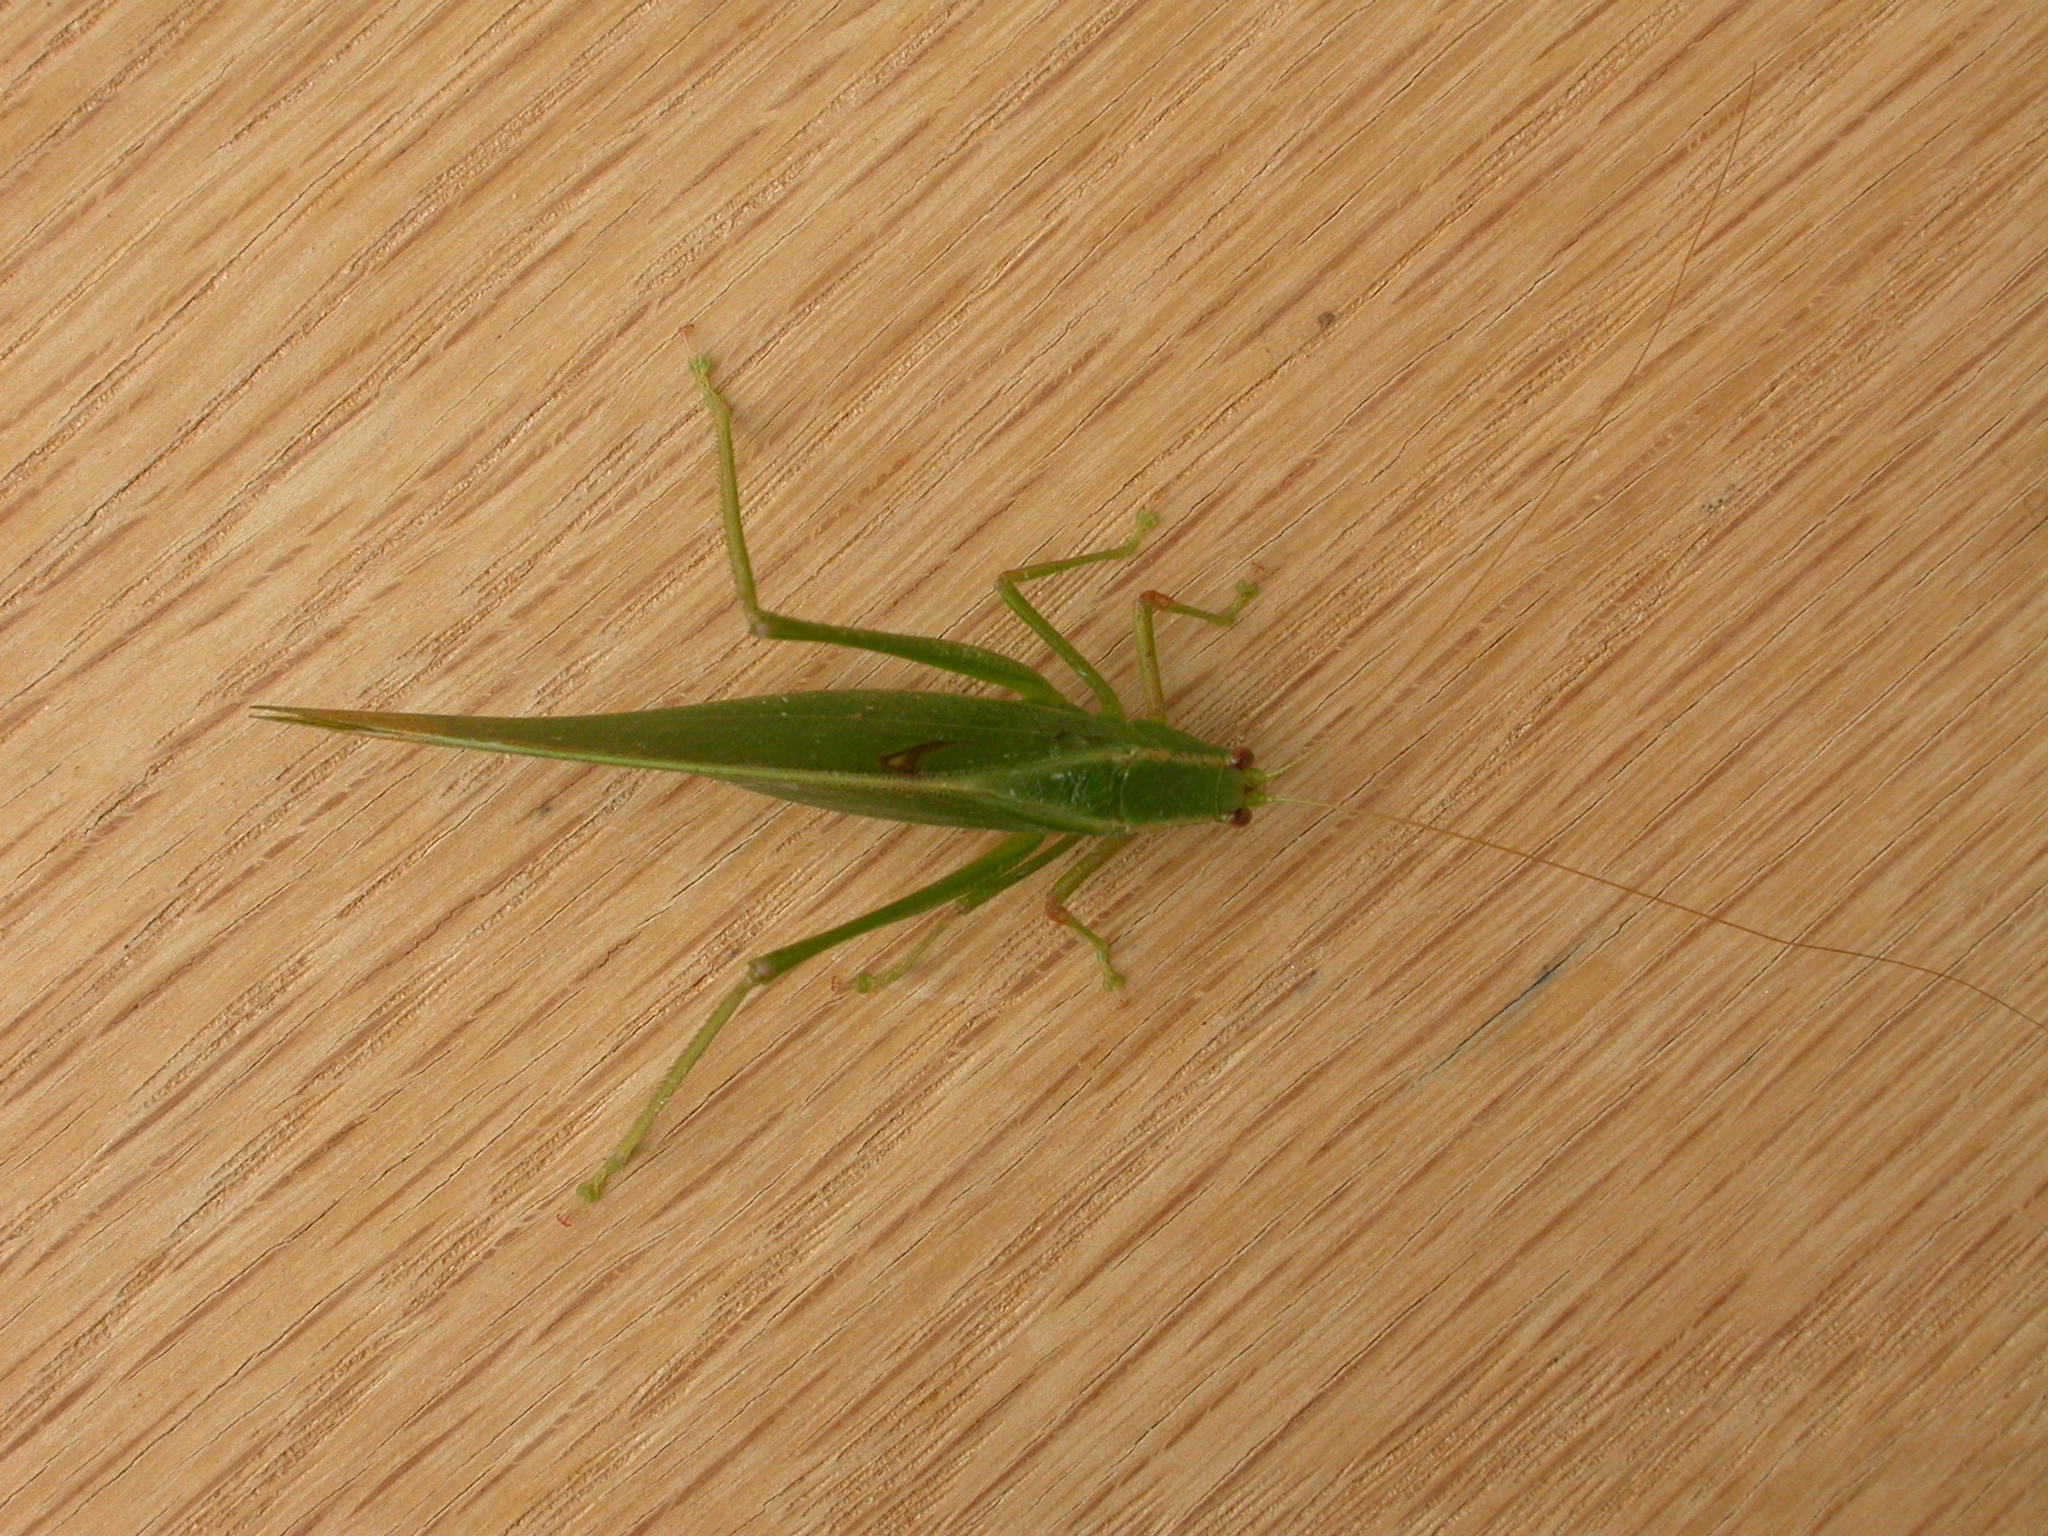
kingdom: Animalia
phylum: Arthropoda
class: Insecta
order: Orthoptera
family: Tettigoniidae
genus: Caedicia
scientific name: Caedicia simplex
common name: Common garden katydid
